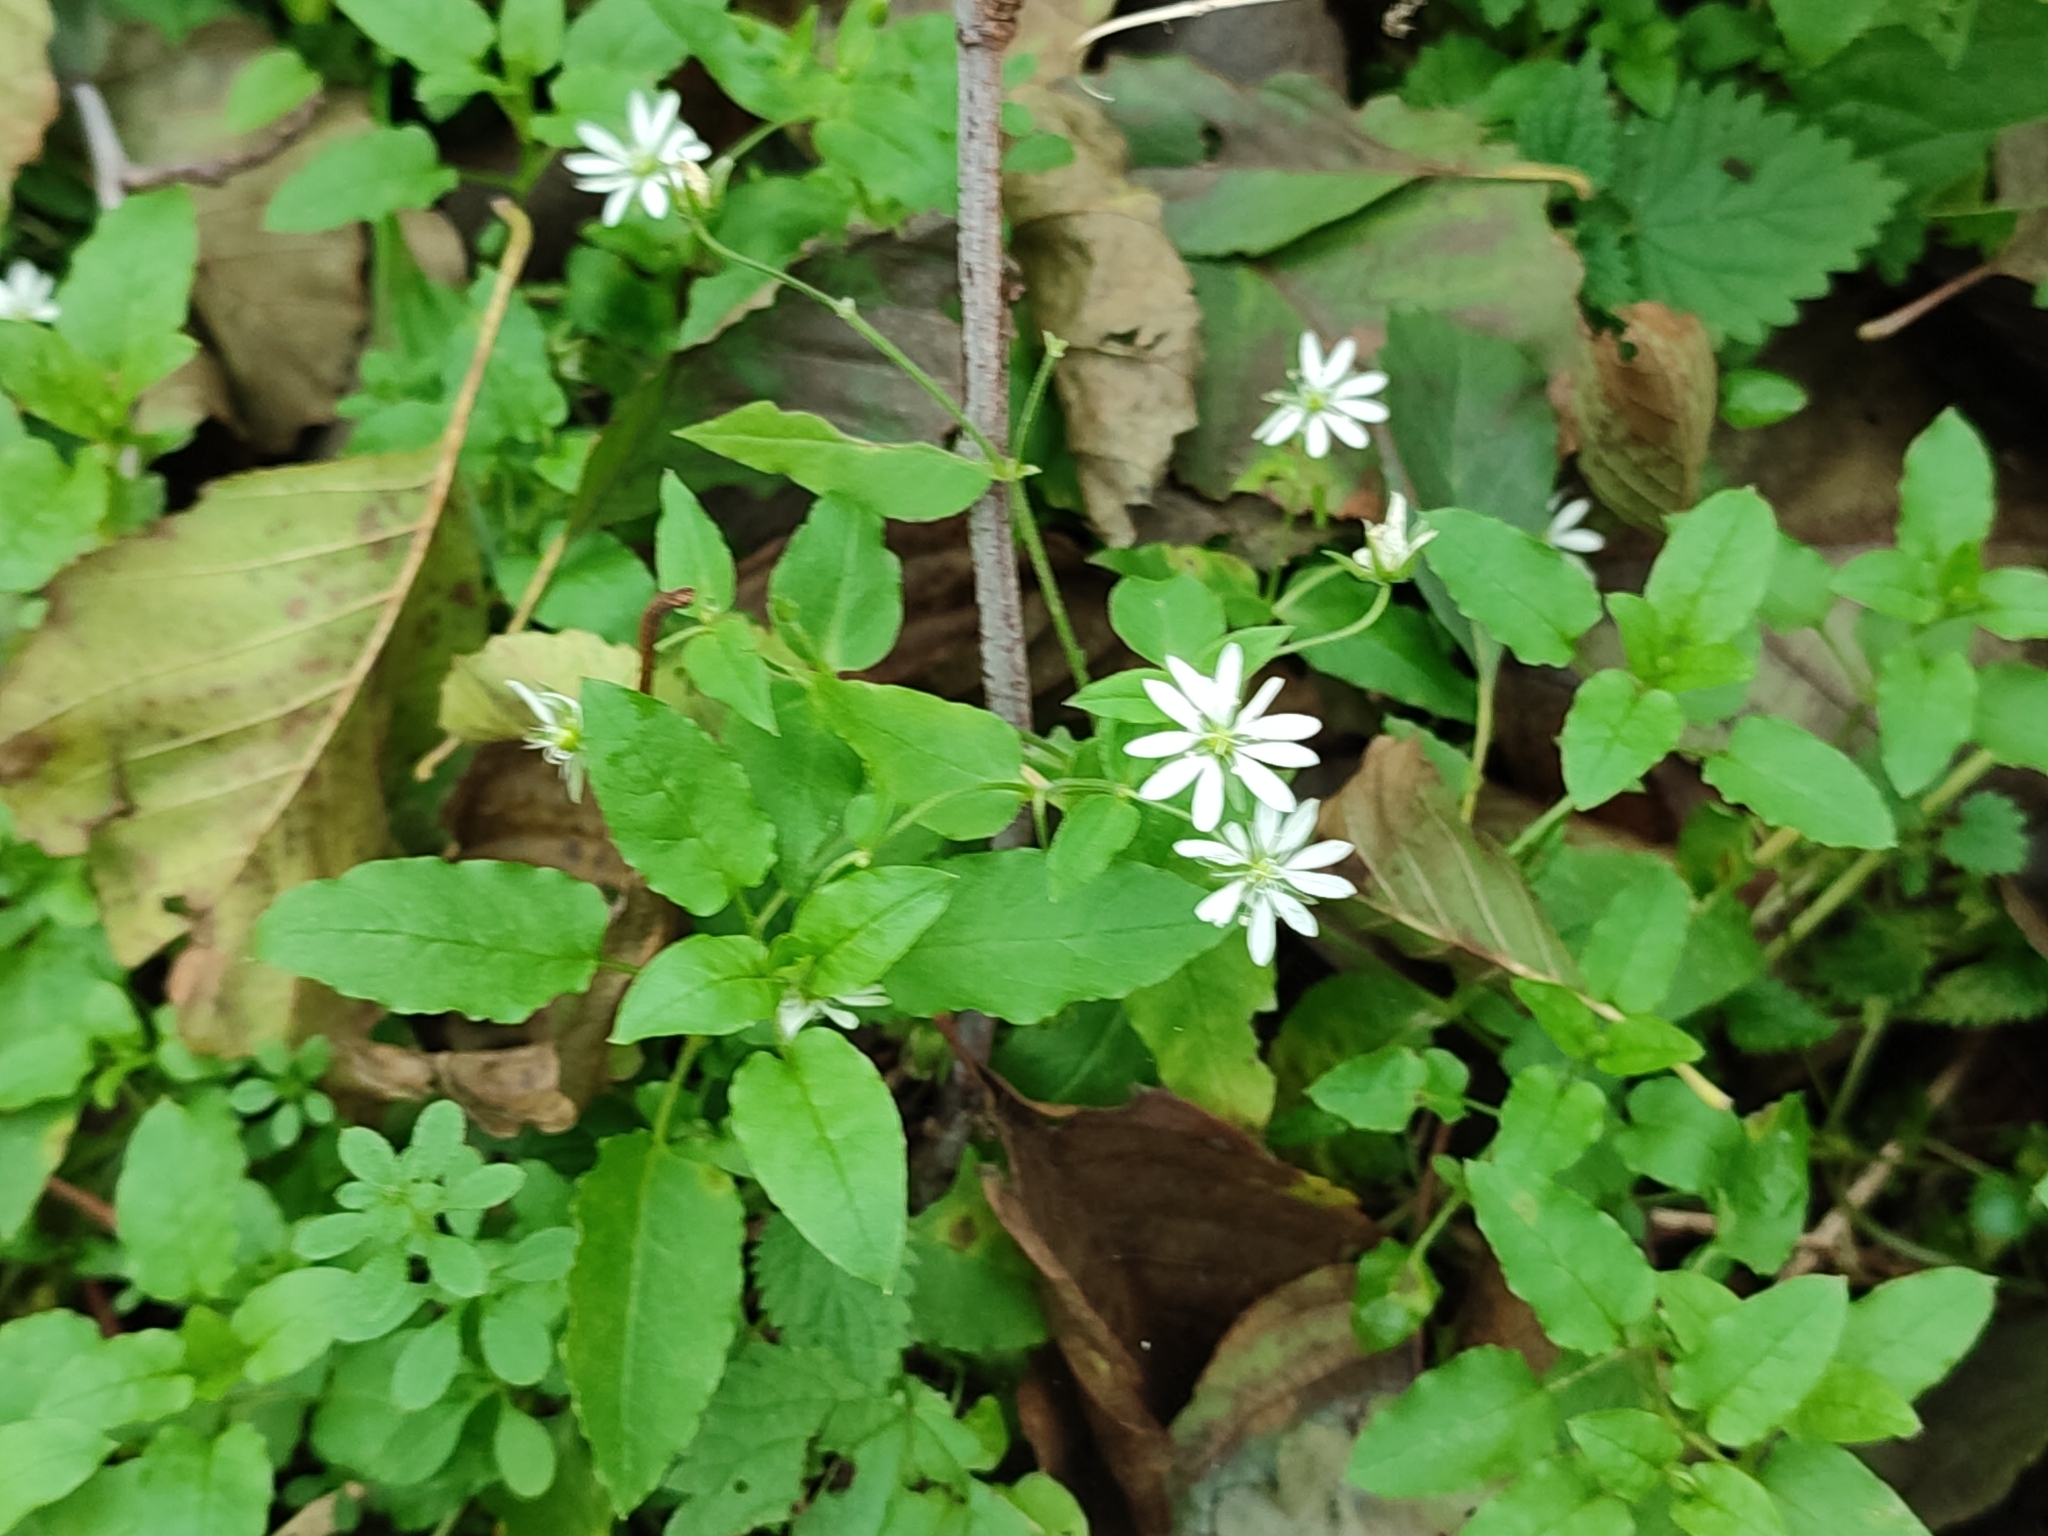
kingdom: Plantae
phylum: Tracheophyta
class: Magnoliopsida
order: Caryophyllales
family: Caryophyllaceae
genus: Stellaria
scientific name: Stellaria aquatica
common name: Water chickweed
